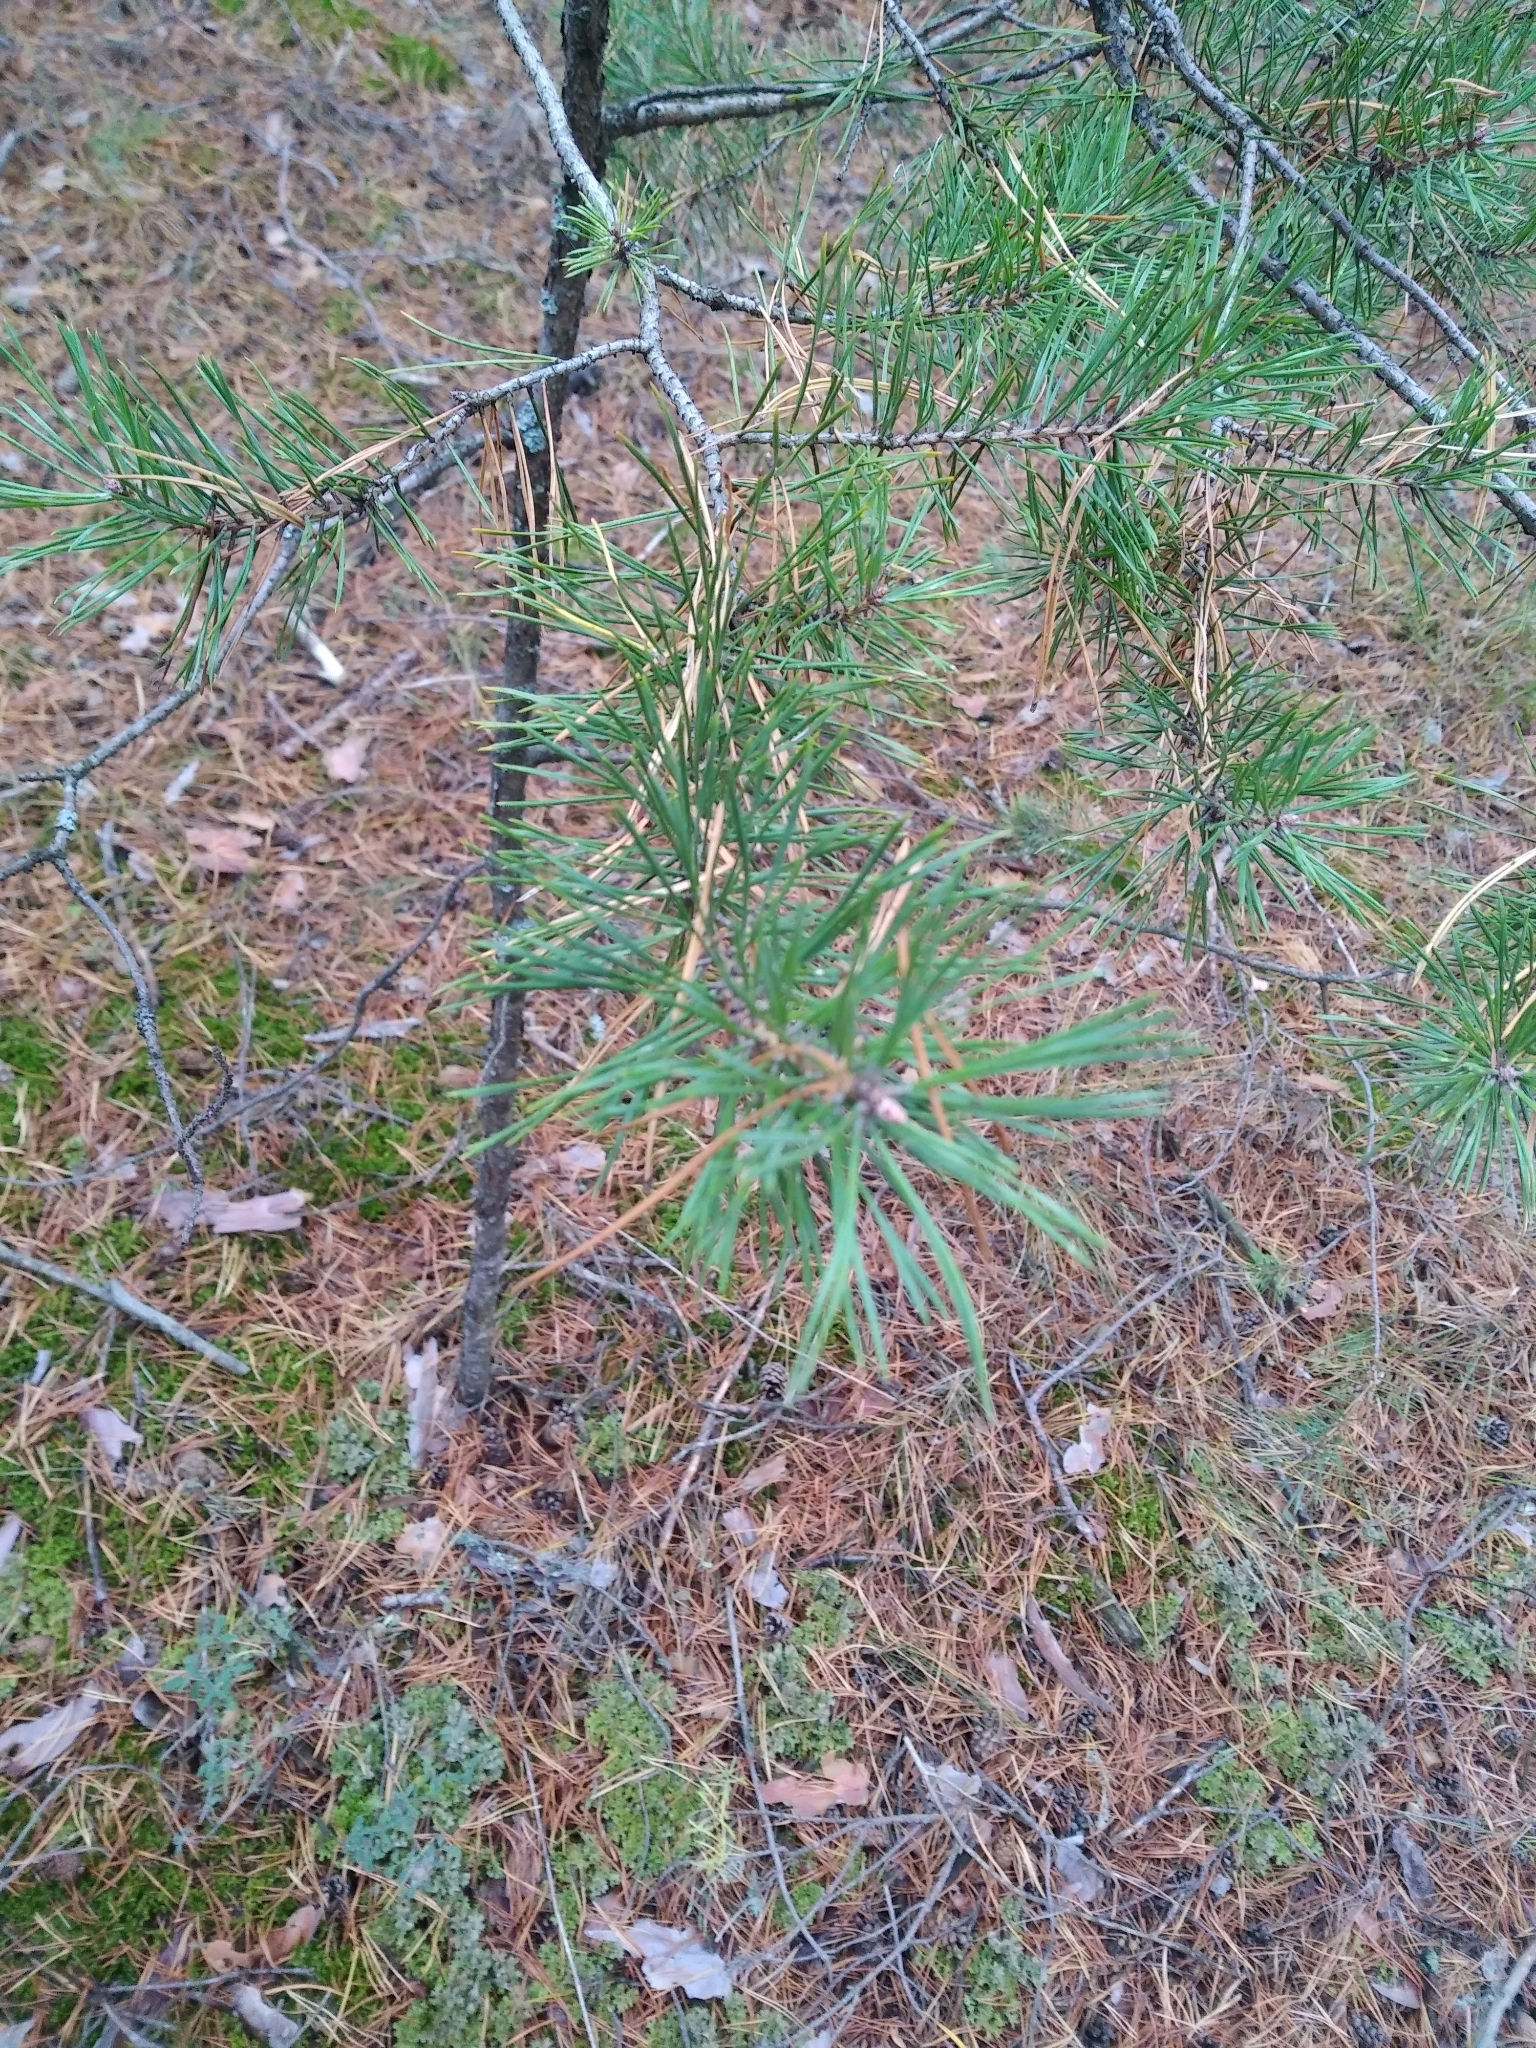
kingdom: Plantae
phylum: Tracheophyta
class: Pinopsida
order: Pinales
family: Pinaceae
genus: Pinus
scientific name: Pinus sylvestris
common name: Scots pine
